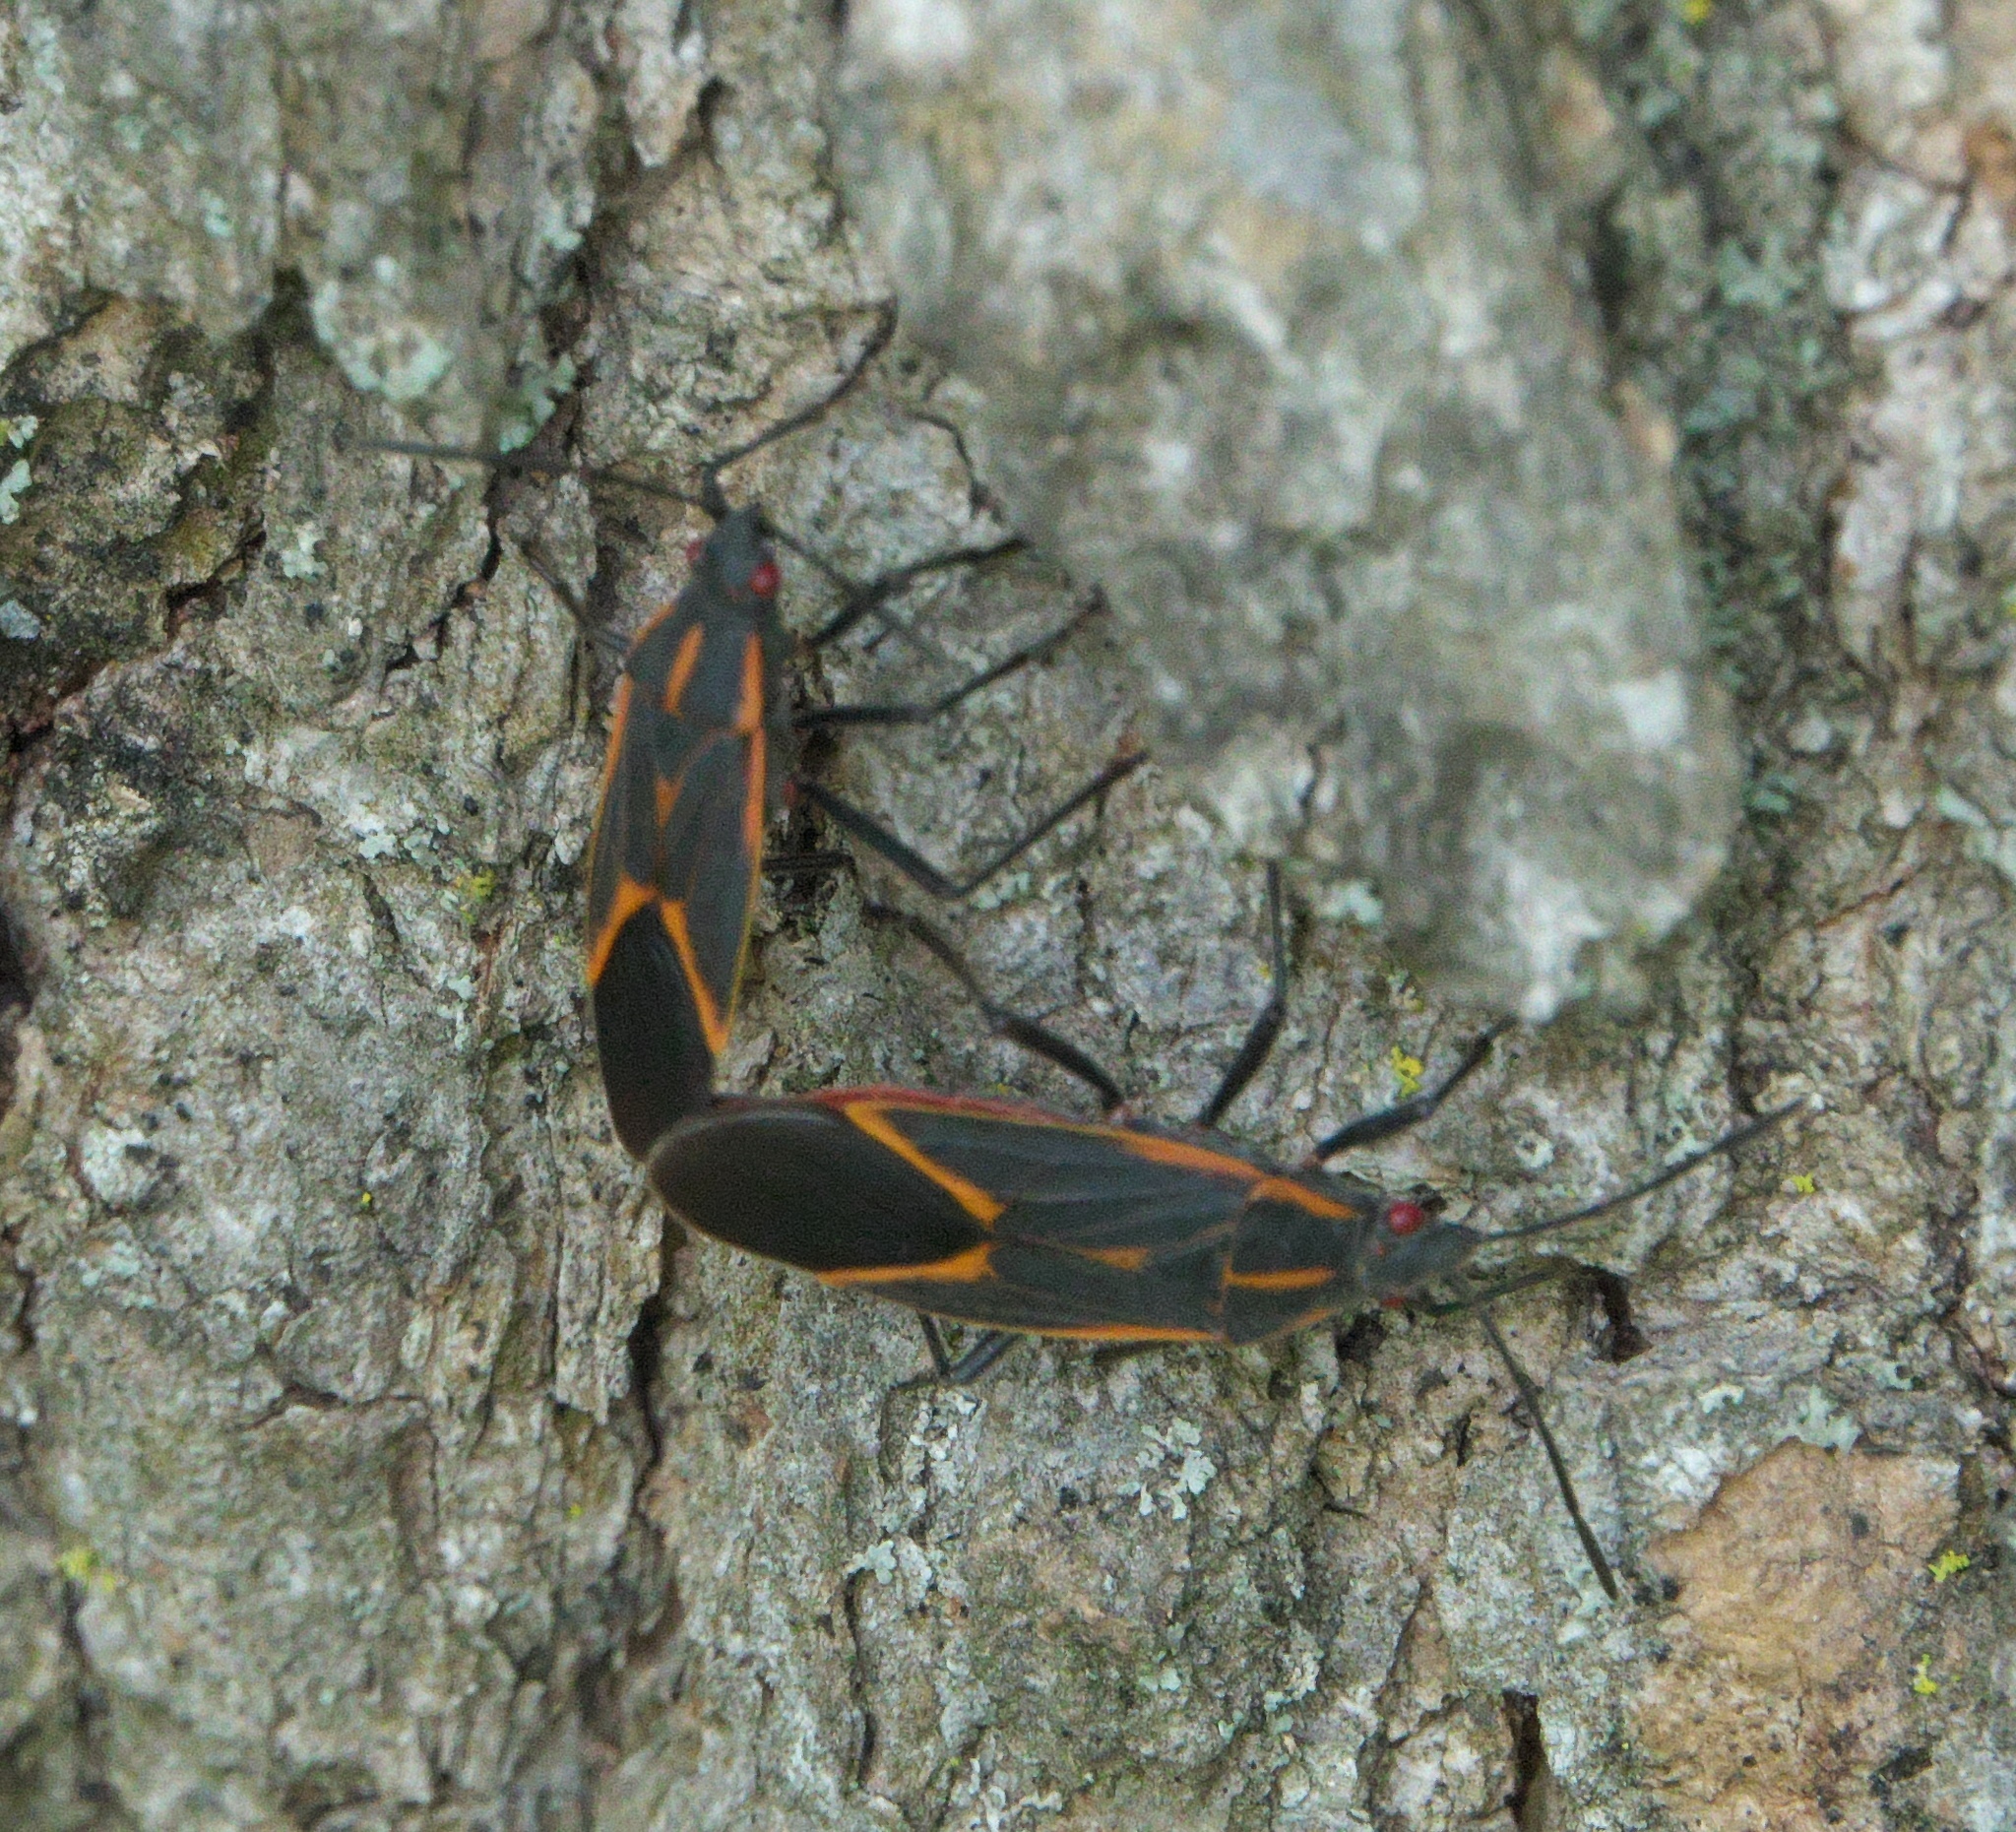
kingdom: Animalia
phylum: Arthropoda
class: Insecta
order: Hemiptera
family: Rhopalidae
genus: Boisea
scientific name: Boisea trivittata
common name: Boxelder bug
